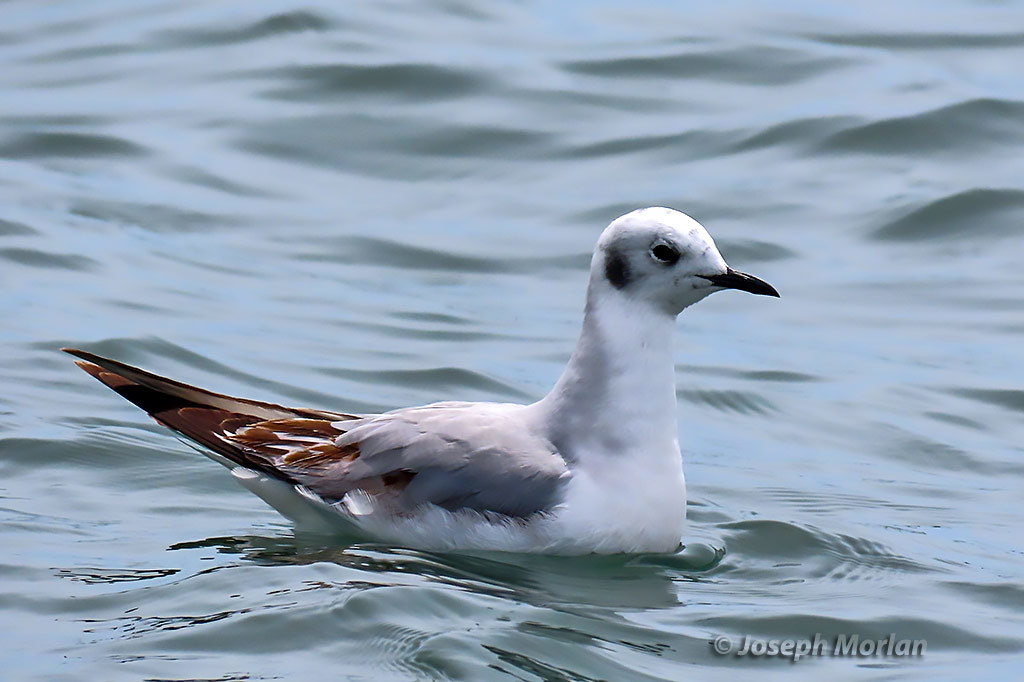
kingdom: Animalia
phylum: Chordata
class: Aves
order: Charadriiformes
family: Laridae
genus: Chroicocephalus
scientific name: Chroicocephalus philadelphia
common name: Bonaparte's gull
